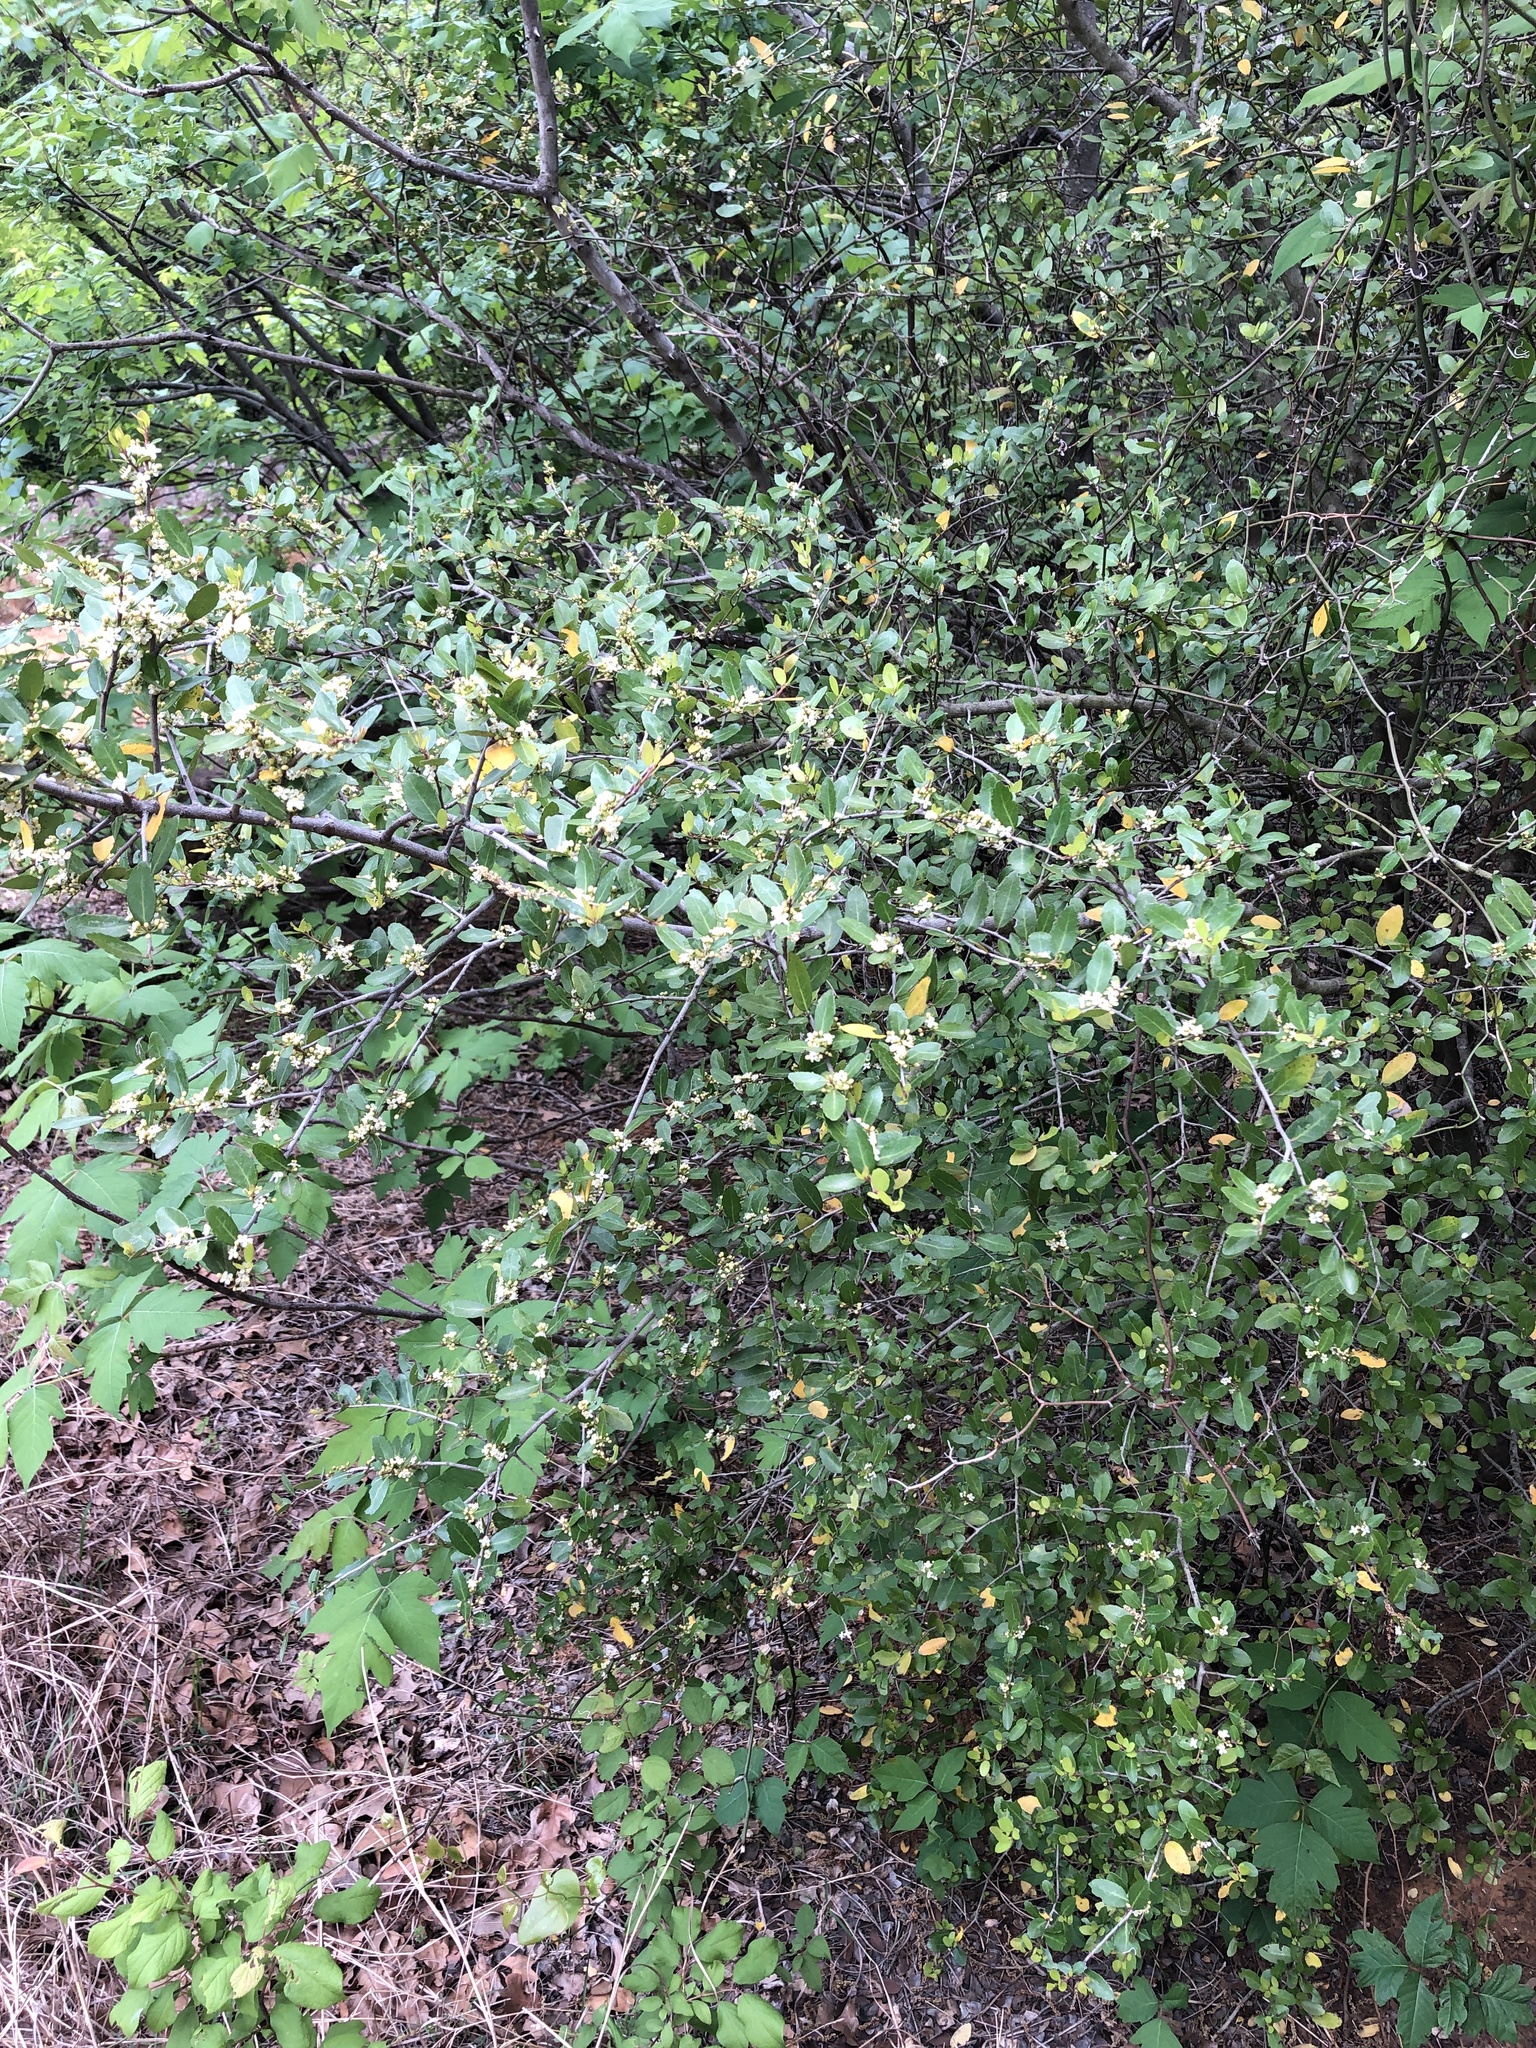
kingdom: Plantae
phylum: Tracheophyta
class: Magnoliopsida
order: Aquifoliales
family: Aquifoliaceae
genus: Ilex
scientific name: Ilex vomitoria
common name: Yaupon holly
